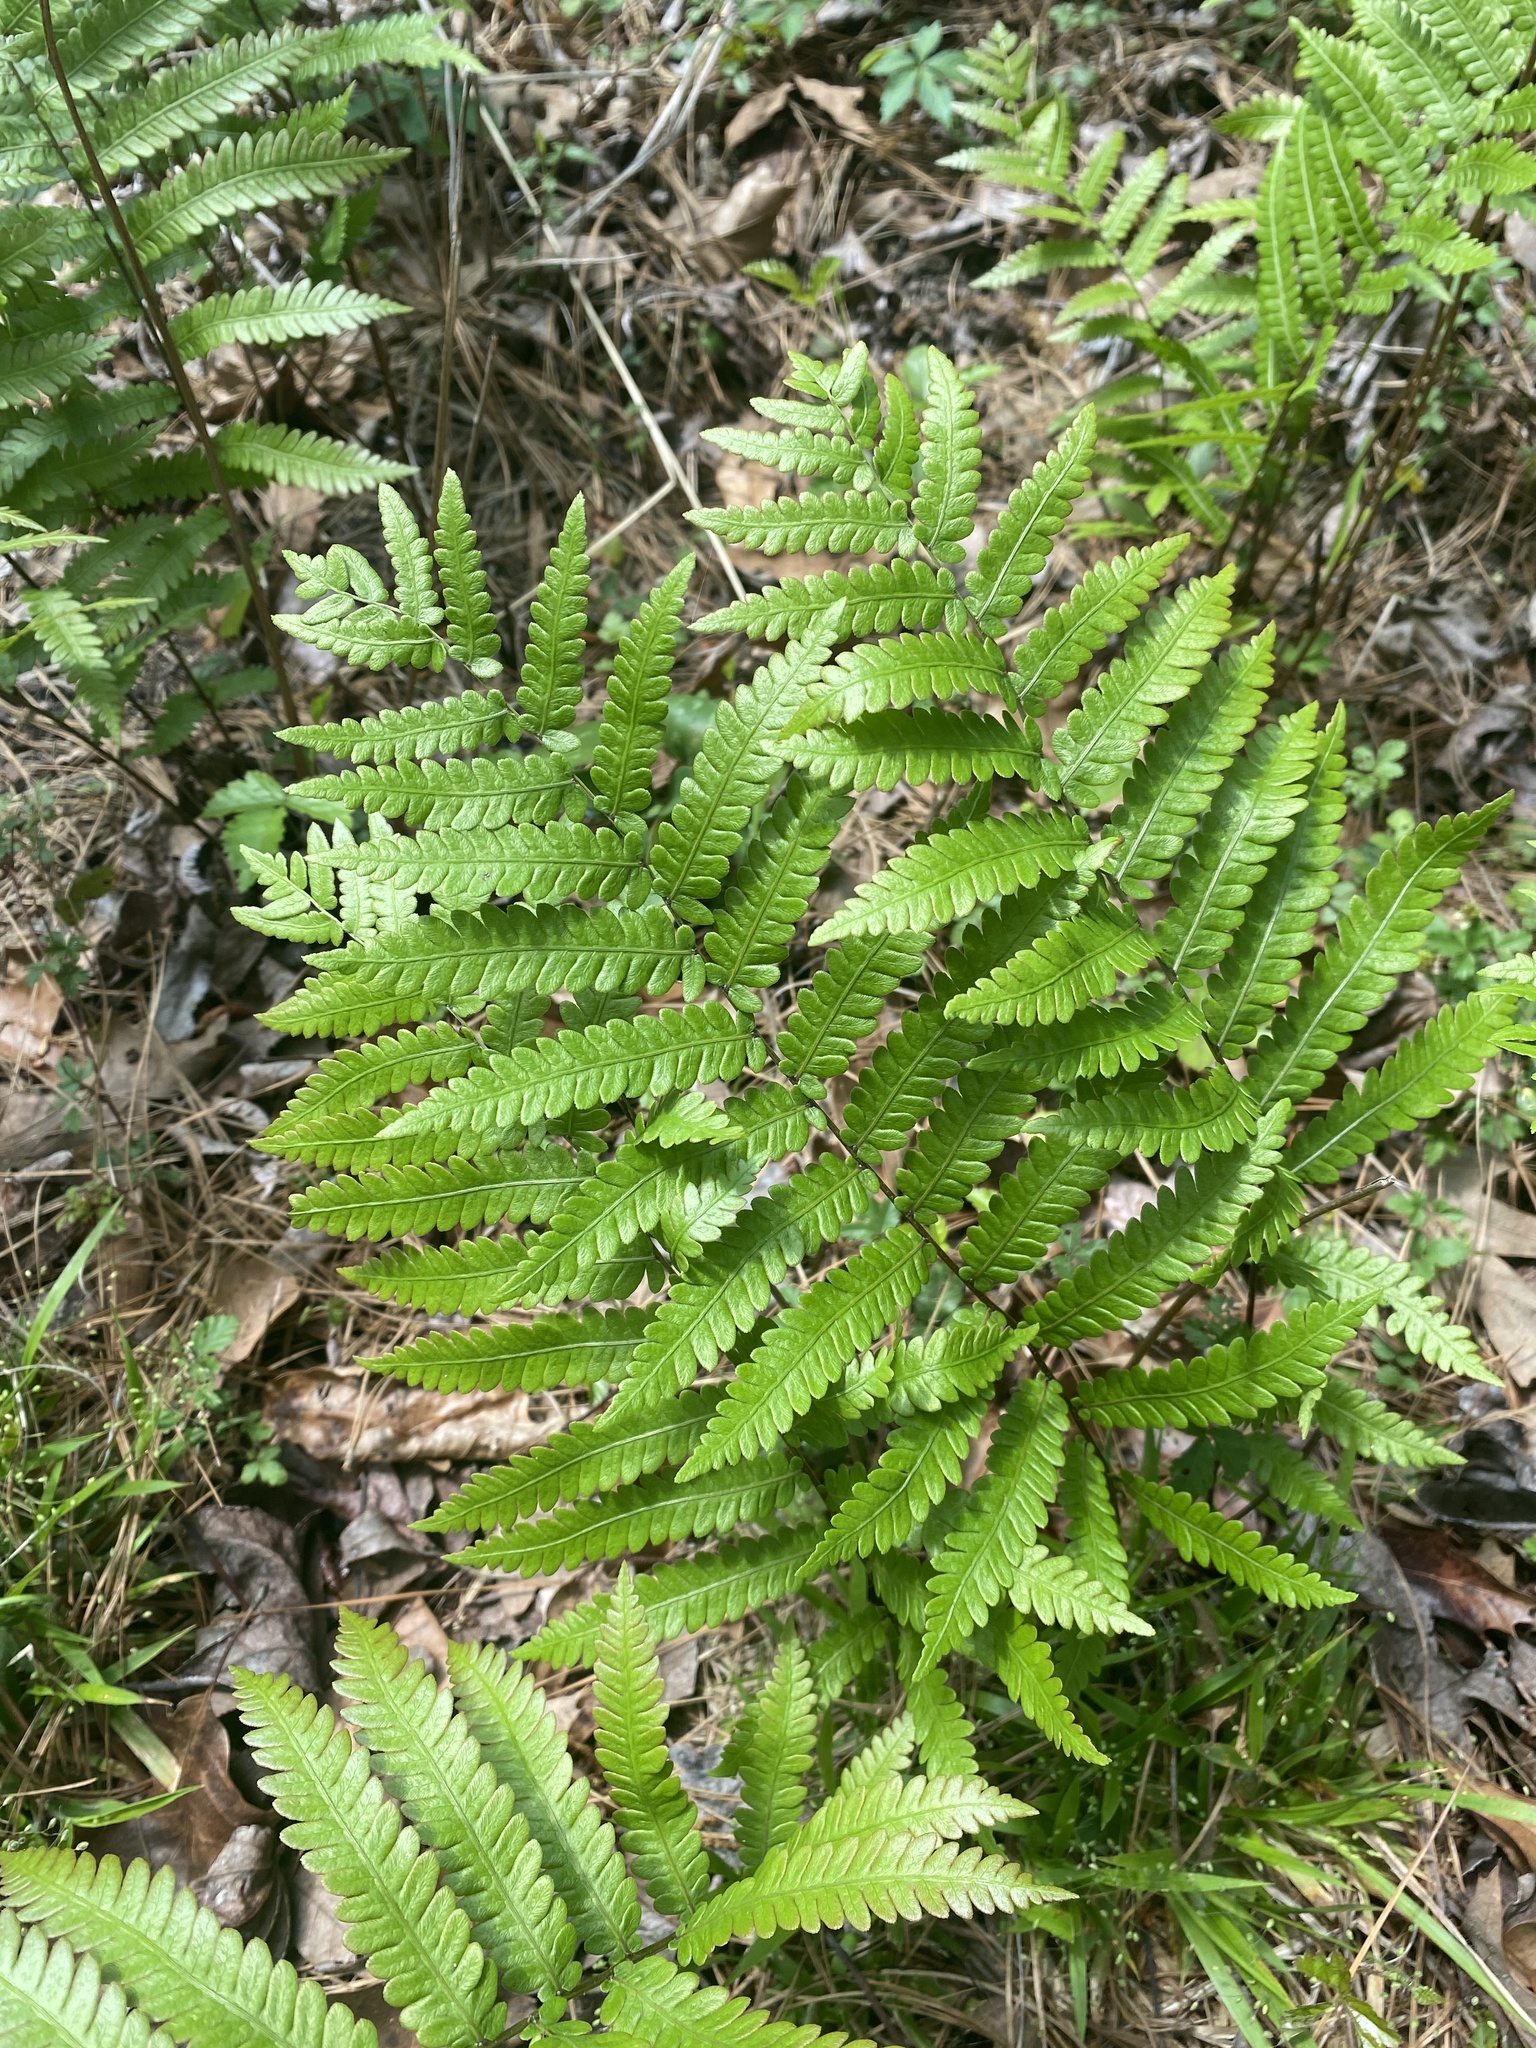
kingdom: Plantae
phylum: Tracheophyta
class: Polypodiopsida
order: Polypodiales
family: Blechnaceae
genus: Anchistea
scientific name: Anchistea virginica
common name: Virginia chain fern
